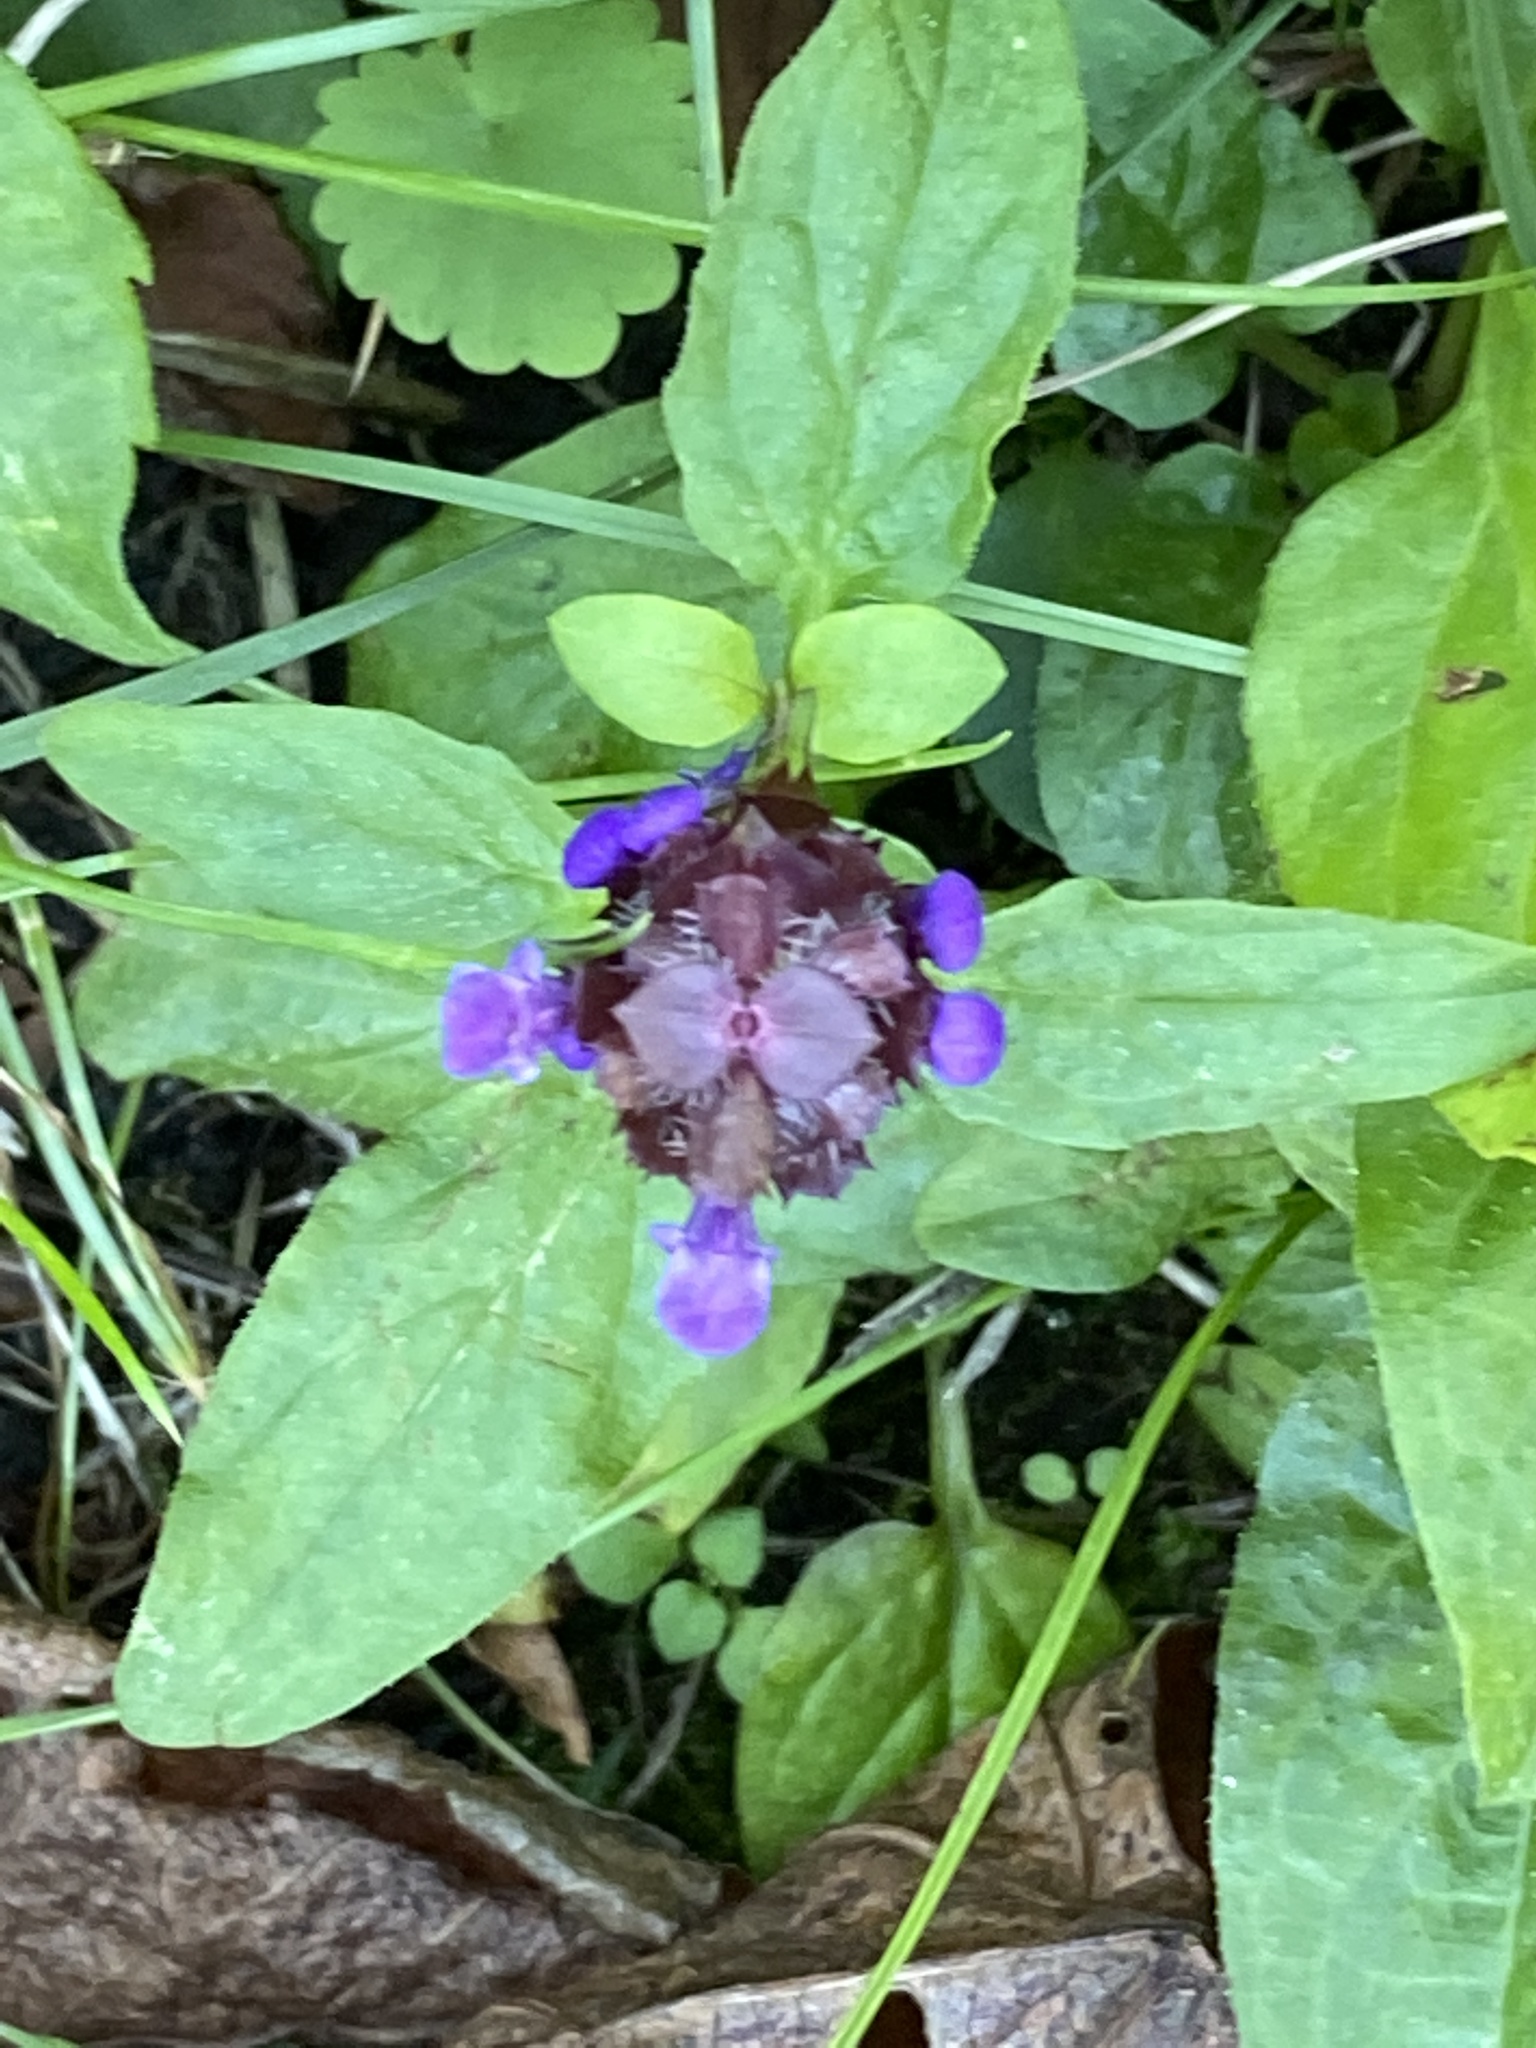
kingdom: Plantae
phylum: Tracheophyta
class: Magnoliopsida
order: Lamiales
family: Lamiaceae
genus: Prunella
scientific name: Prunella vulgaris
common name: Heal-all
